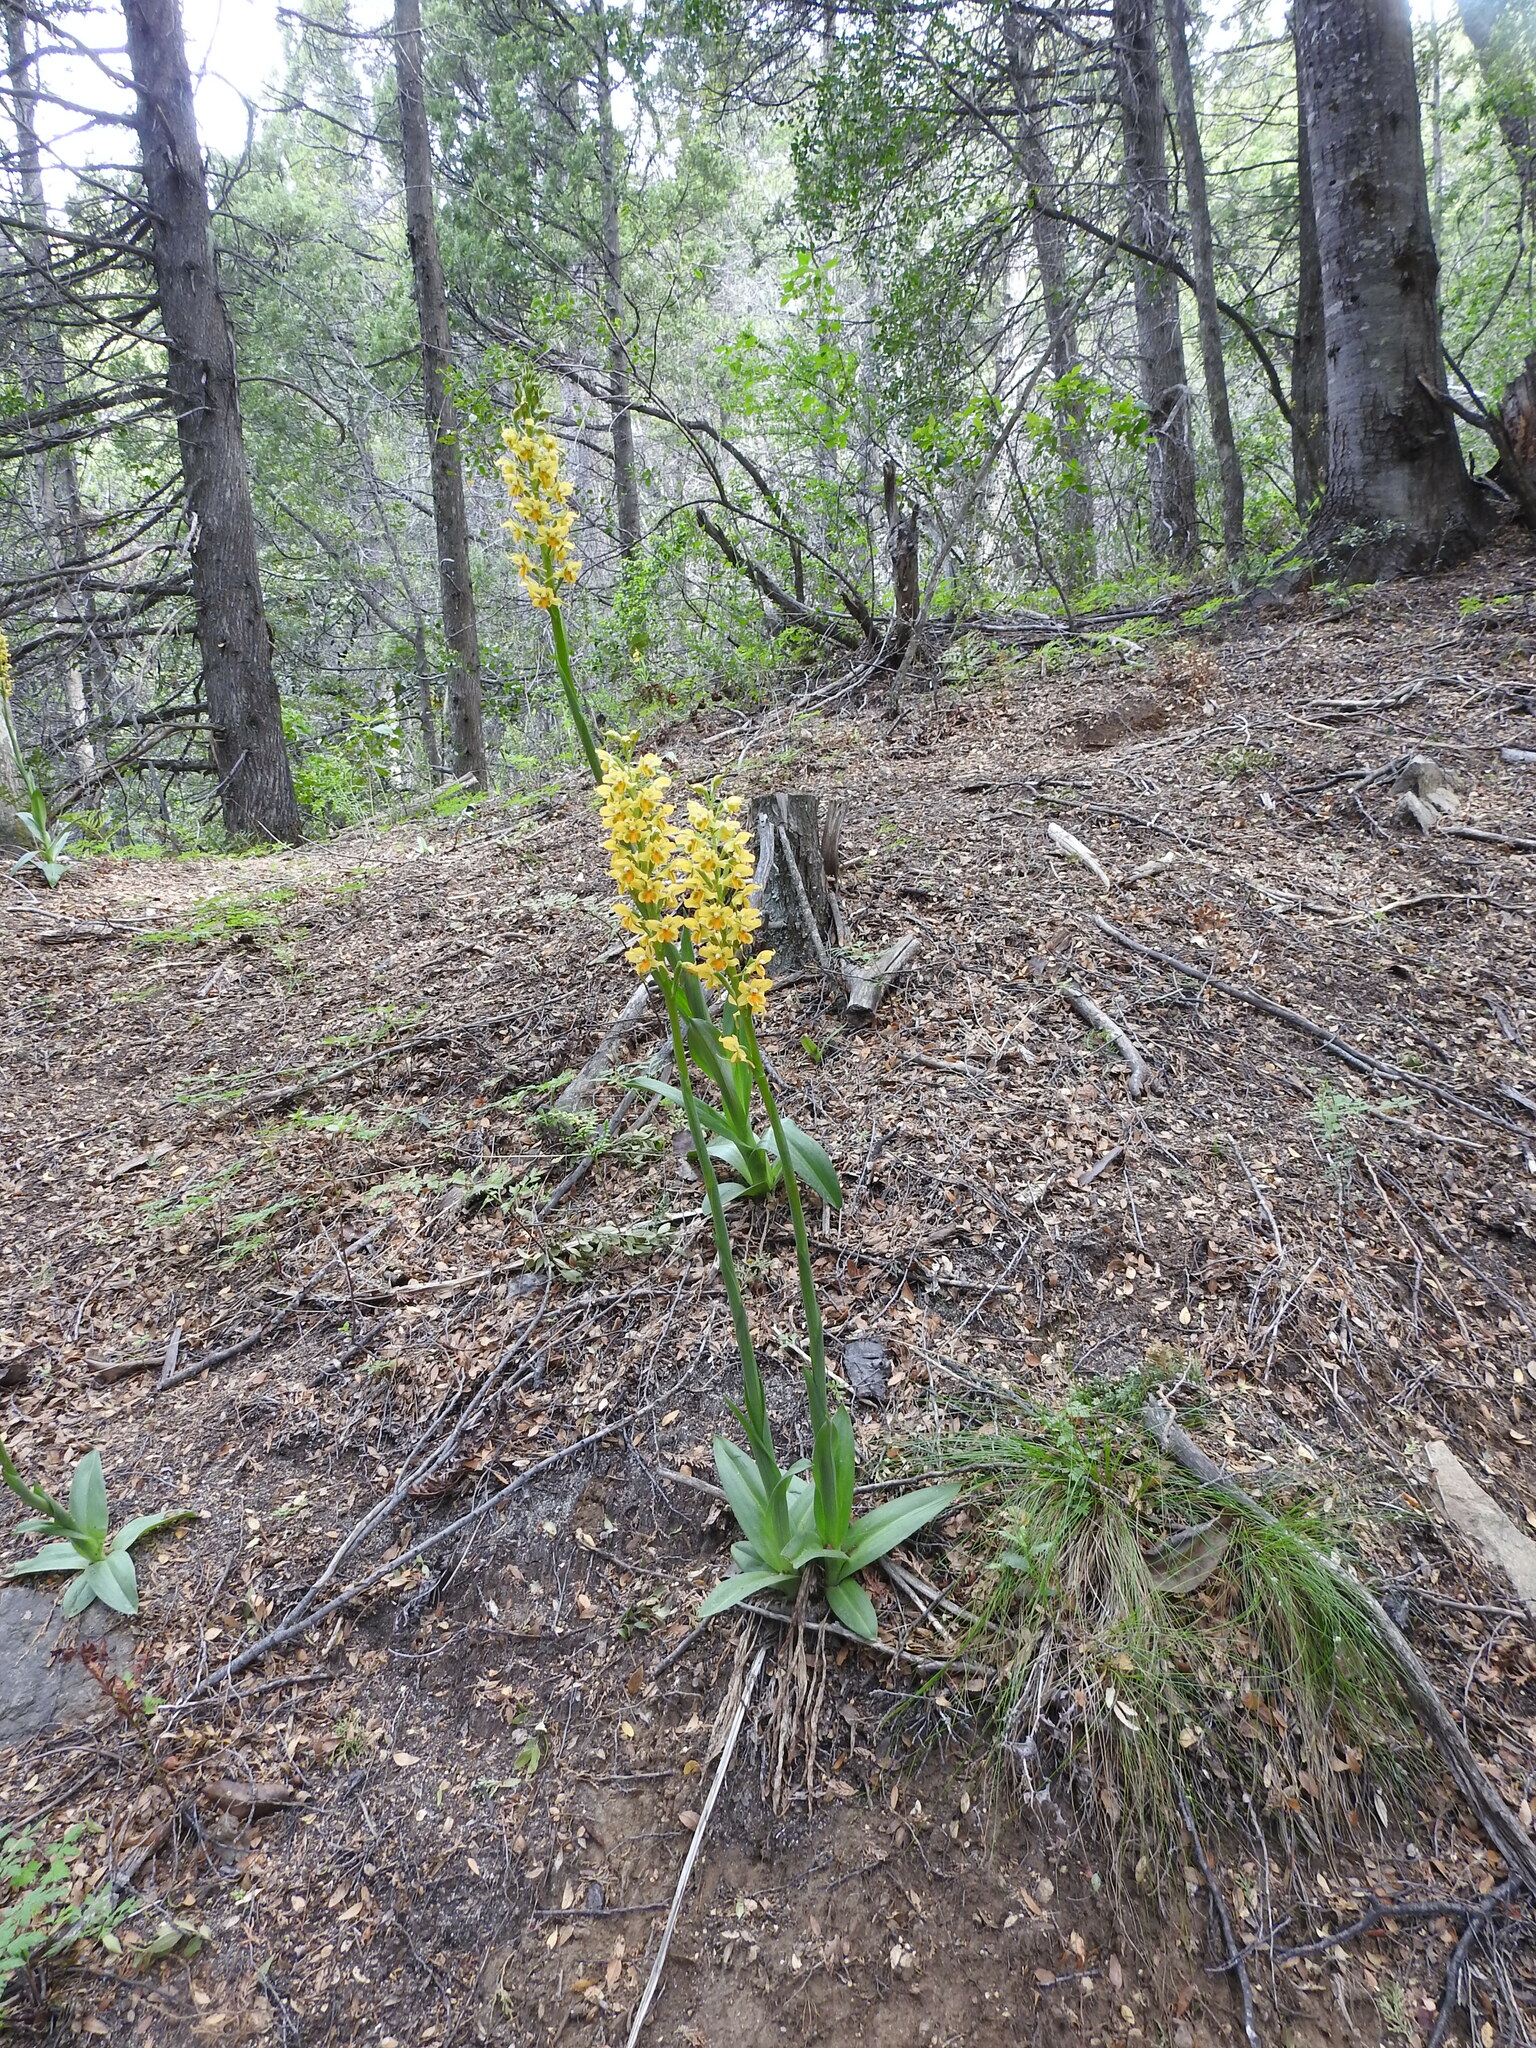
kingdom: Plantae
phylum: Tracheophyta
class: Liliopsida
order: Asparagales
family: Orchidaceae
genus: Gavilea
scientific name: Gavilea odoratissima
